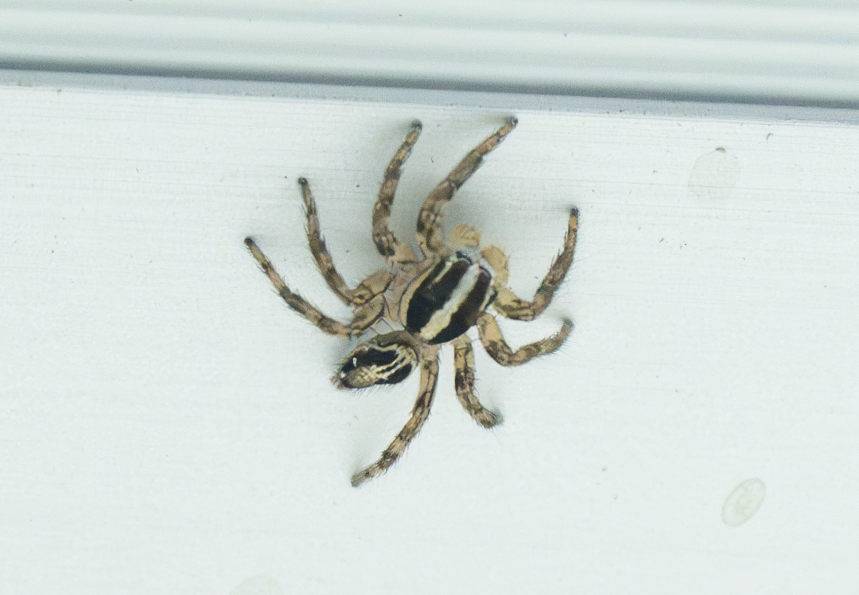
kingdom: Animalia
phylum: Arthropoda
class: Arachnida
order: Araneae
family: Salticidae
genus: Plexippus
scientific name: Plexippus paykulli
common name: Pantropical jumper
